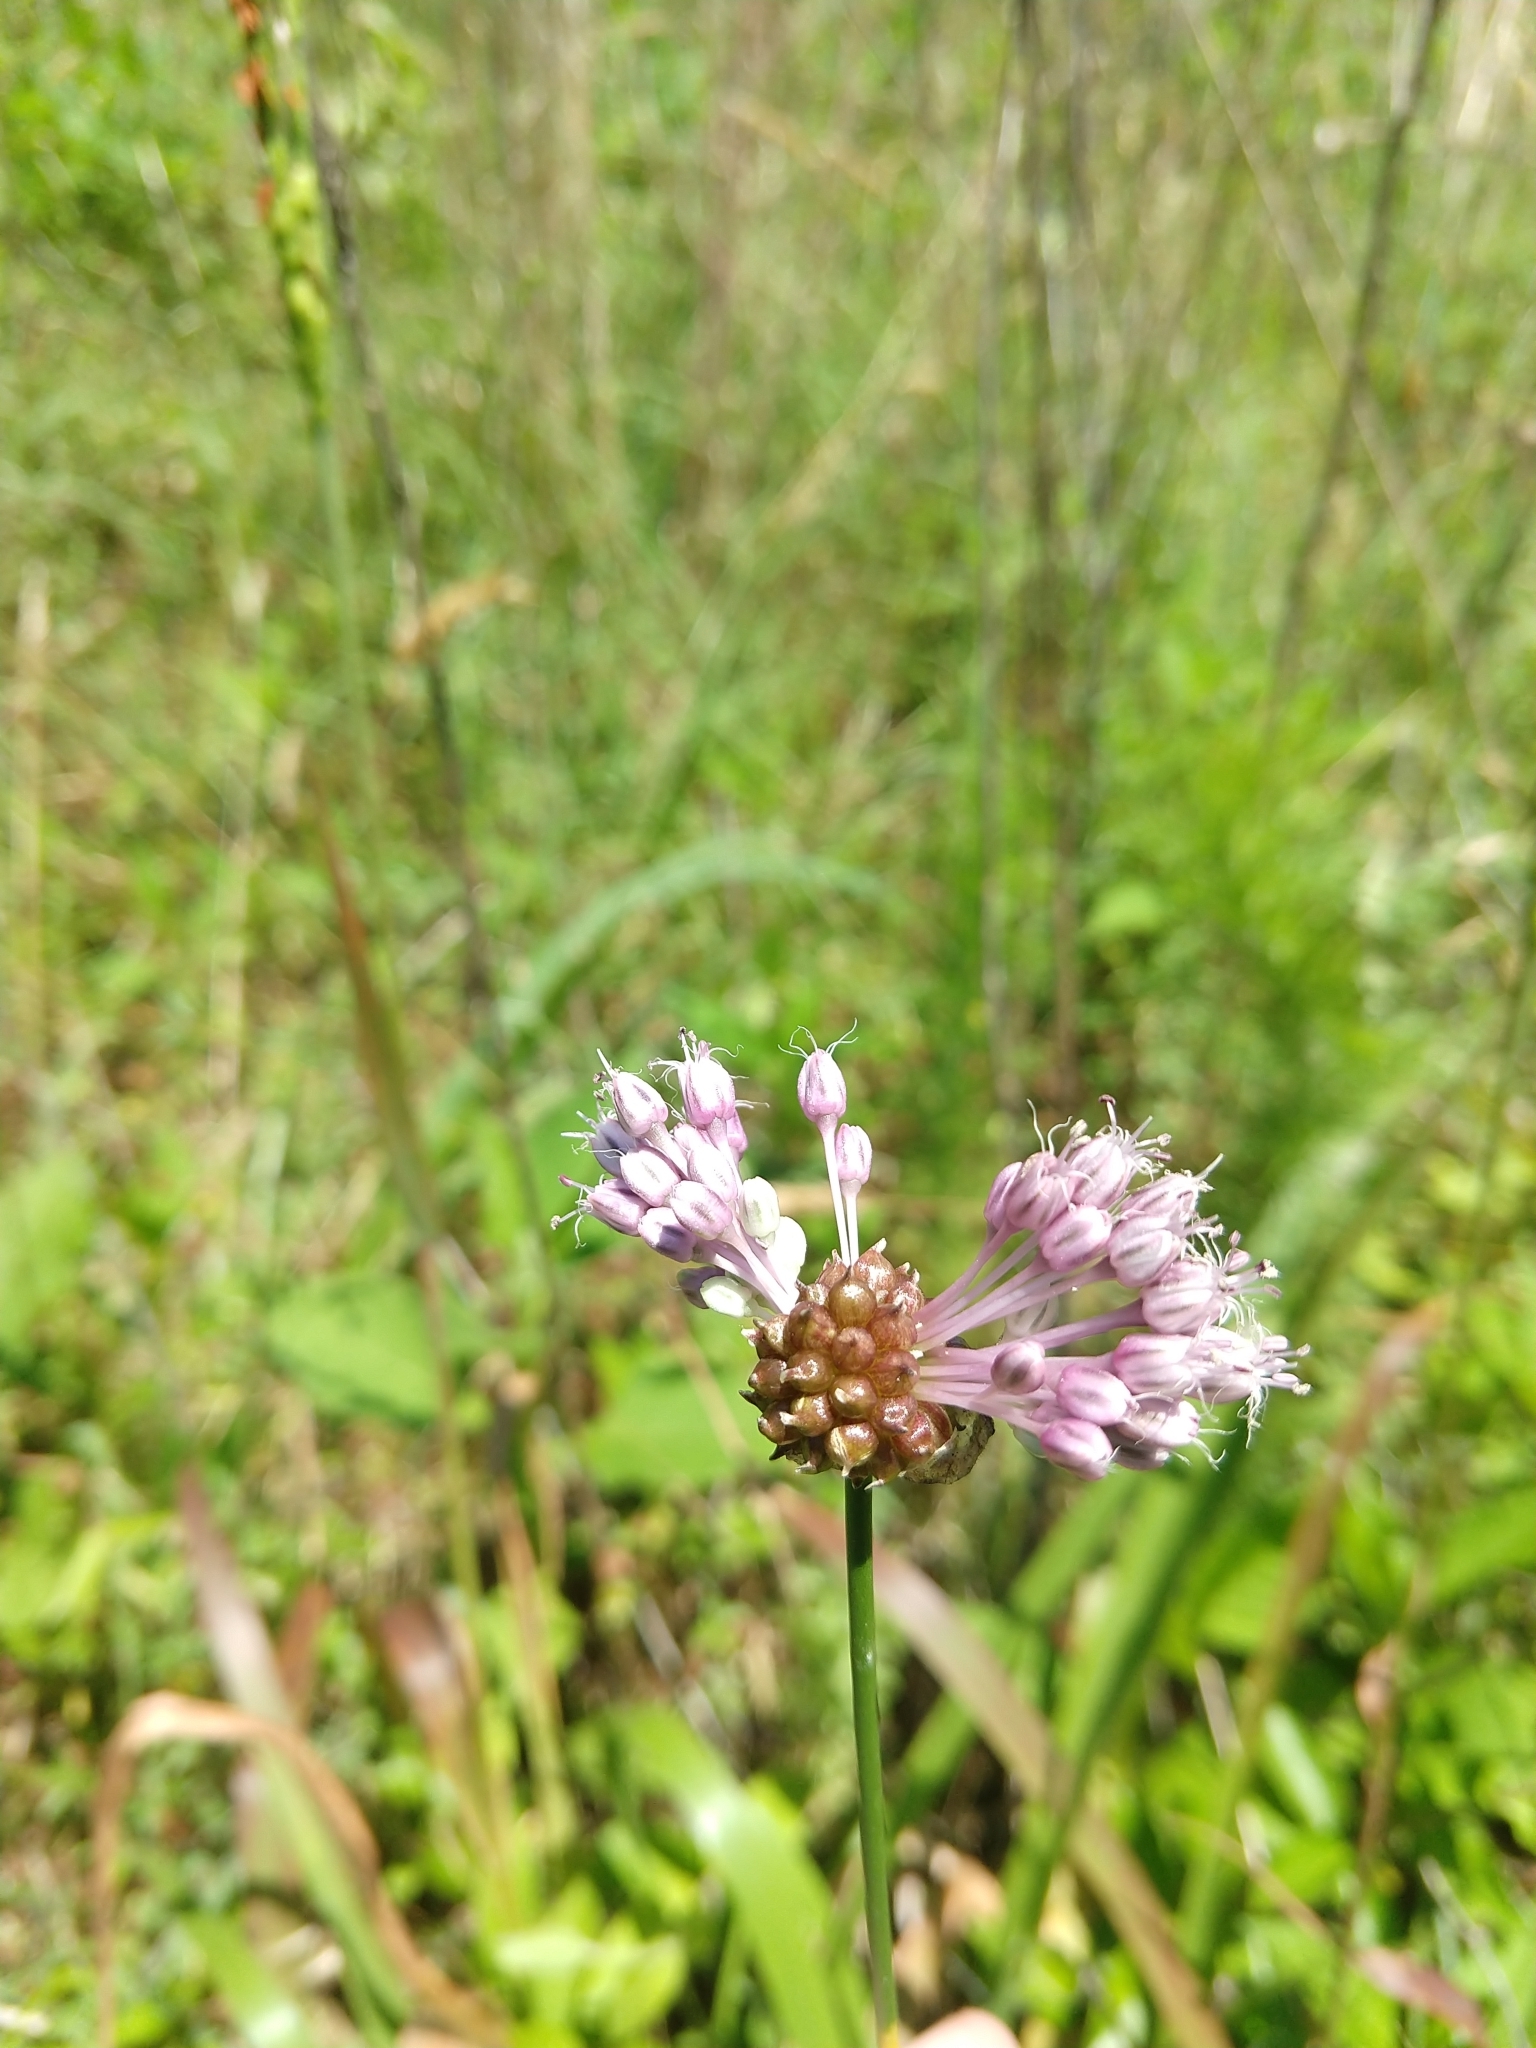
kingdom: Plantae
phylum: Tracheophyta
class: Liliopsida
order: Asparagales
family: Amaryllidaceae
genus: Allium
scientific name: Allium vineale
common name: Crow garlic
